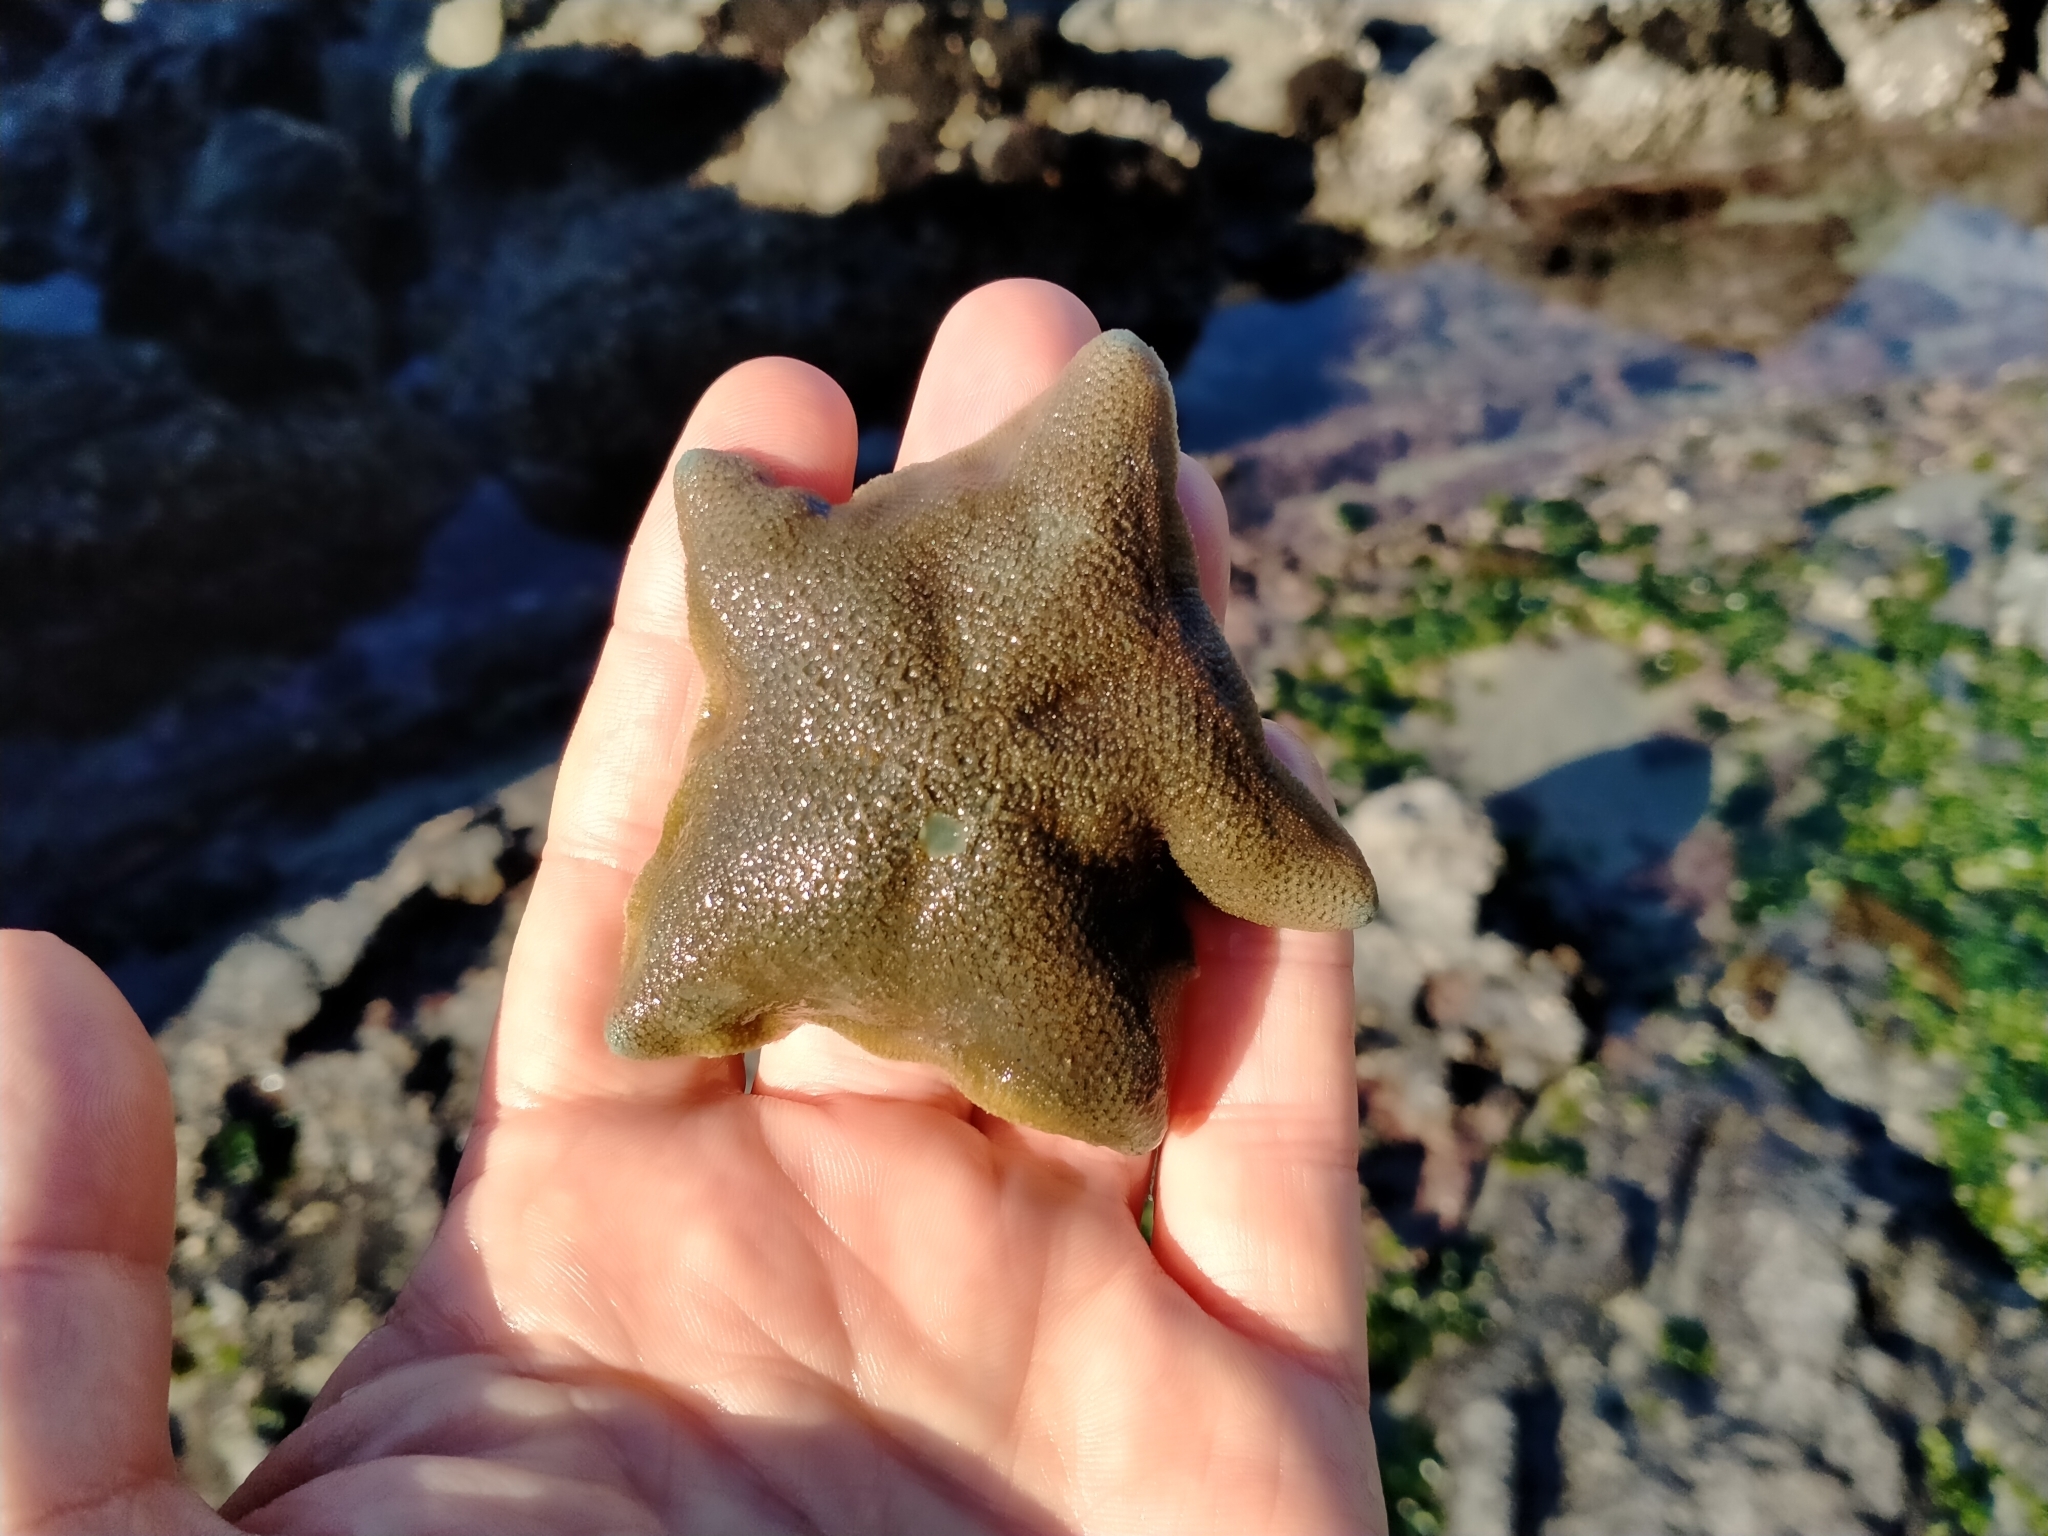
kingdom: Animalia
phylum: Echinodermata
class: Asteroidea
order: Valvatida
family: Asterinidae
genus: Patiriella
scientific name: Patiriella regularis
